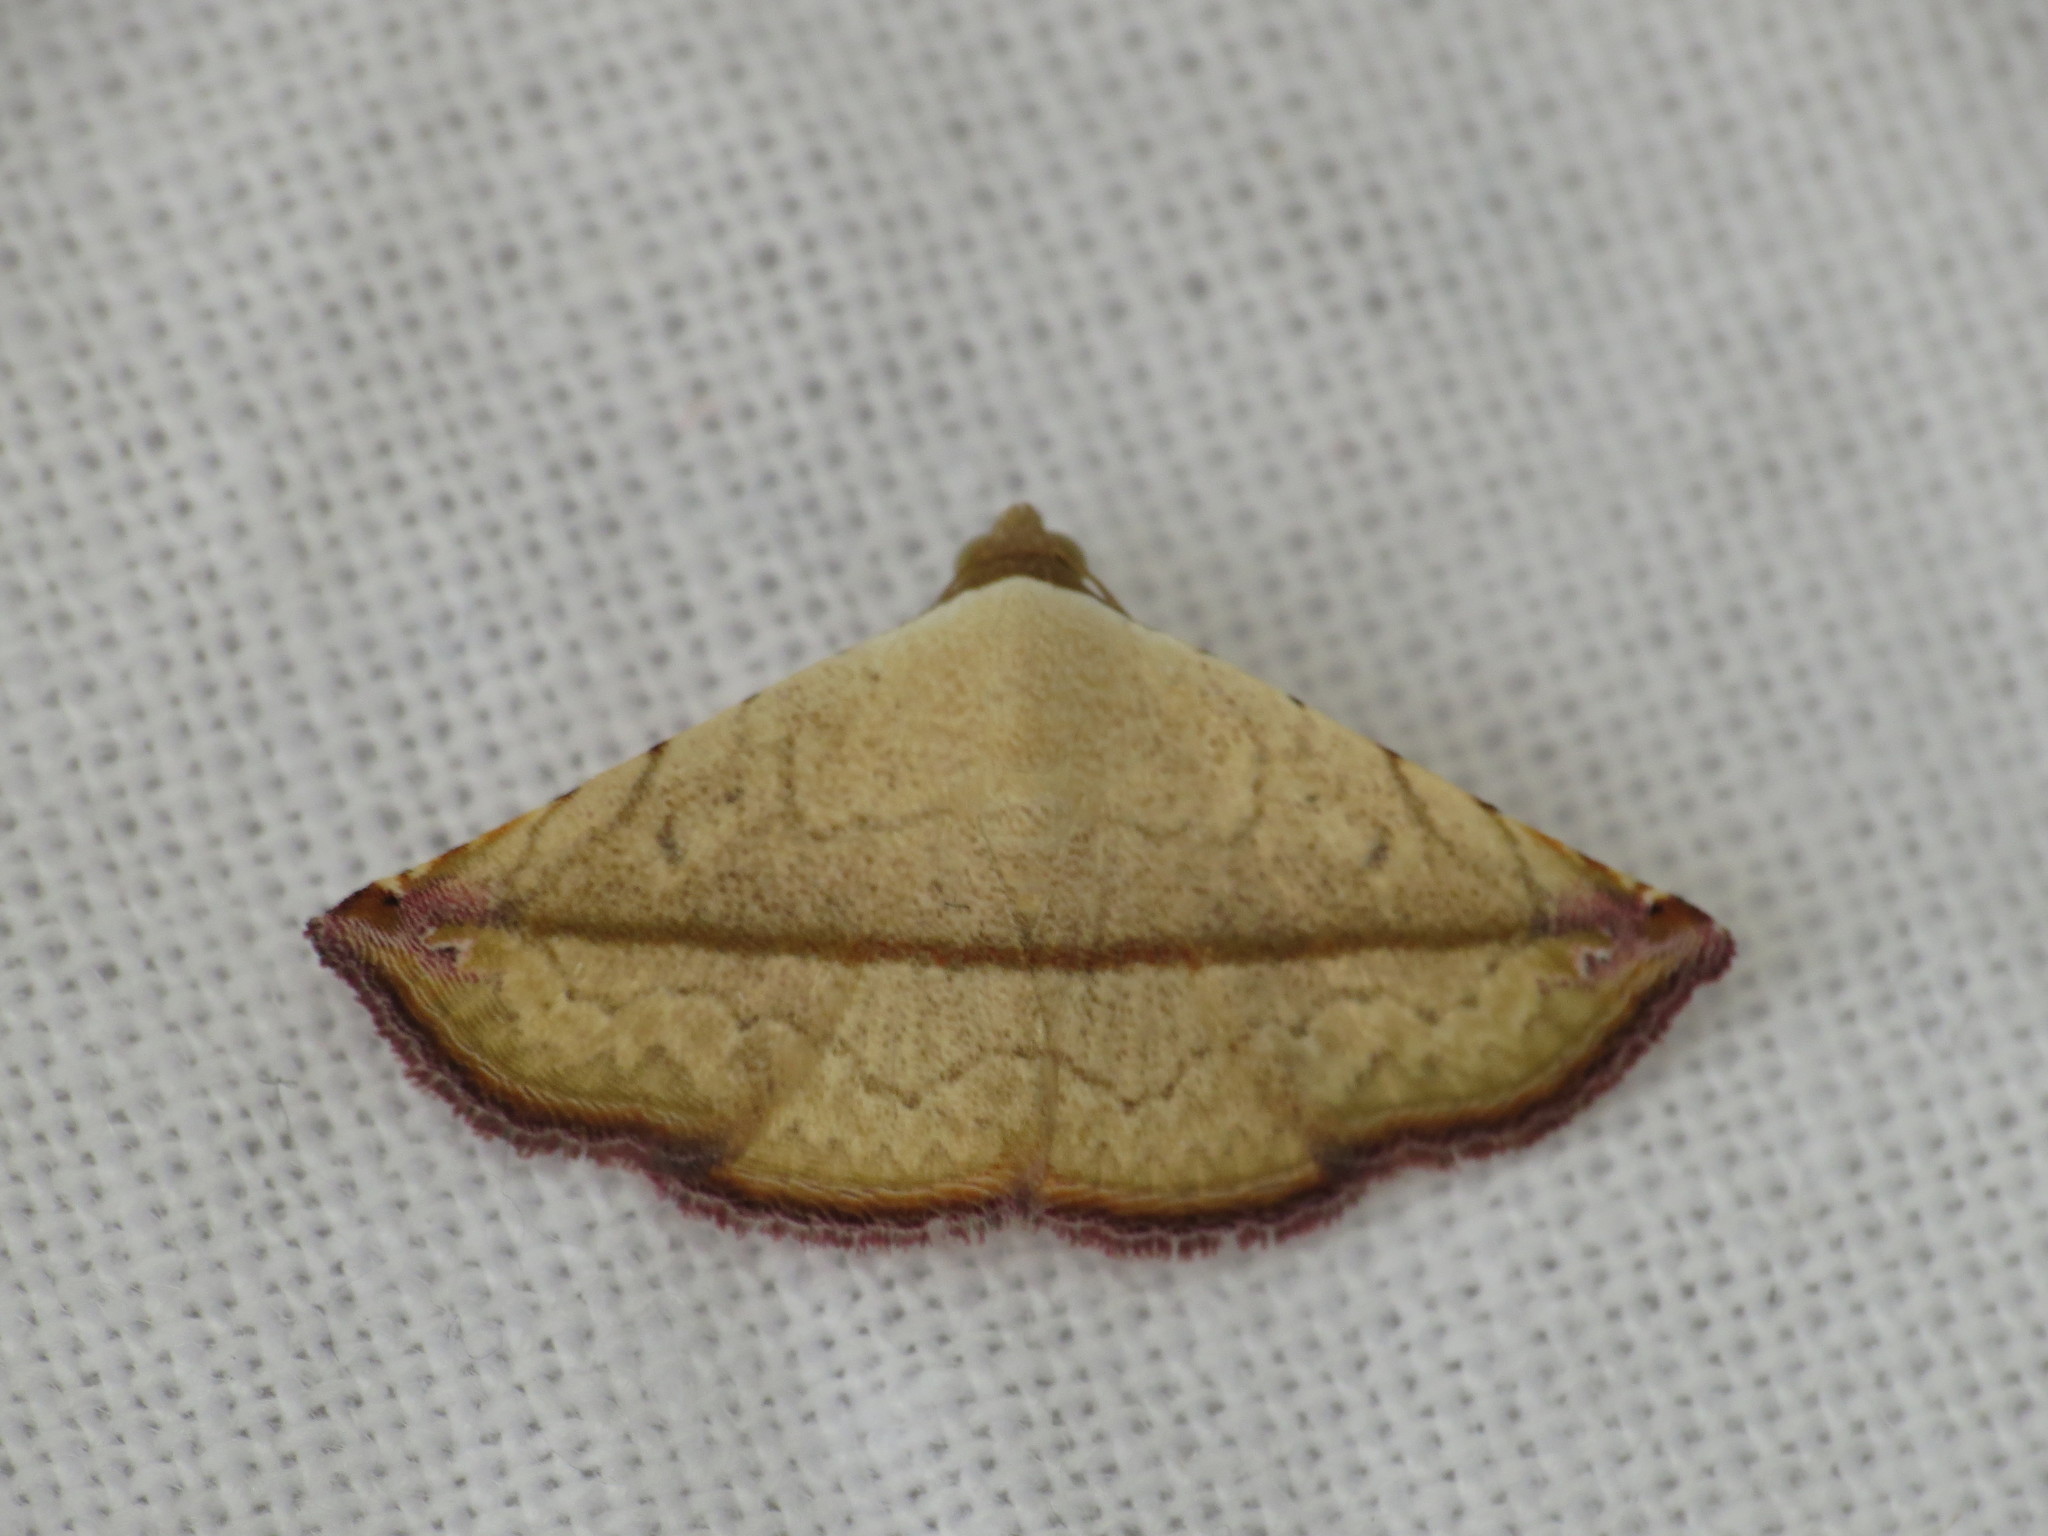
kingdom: Animalia
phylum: Arthropoda
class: Insecta
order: Lepidoptera
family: Noctuidae
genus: Eublemma
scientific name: Eublemma perversicolor
